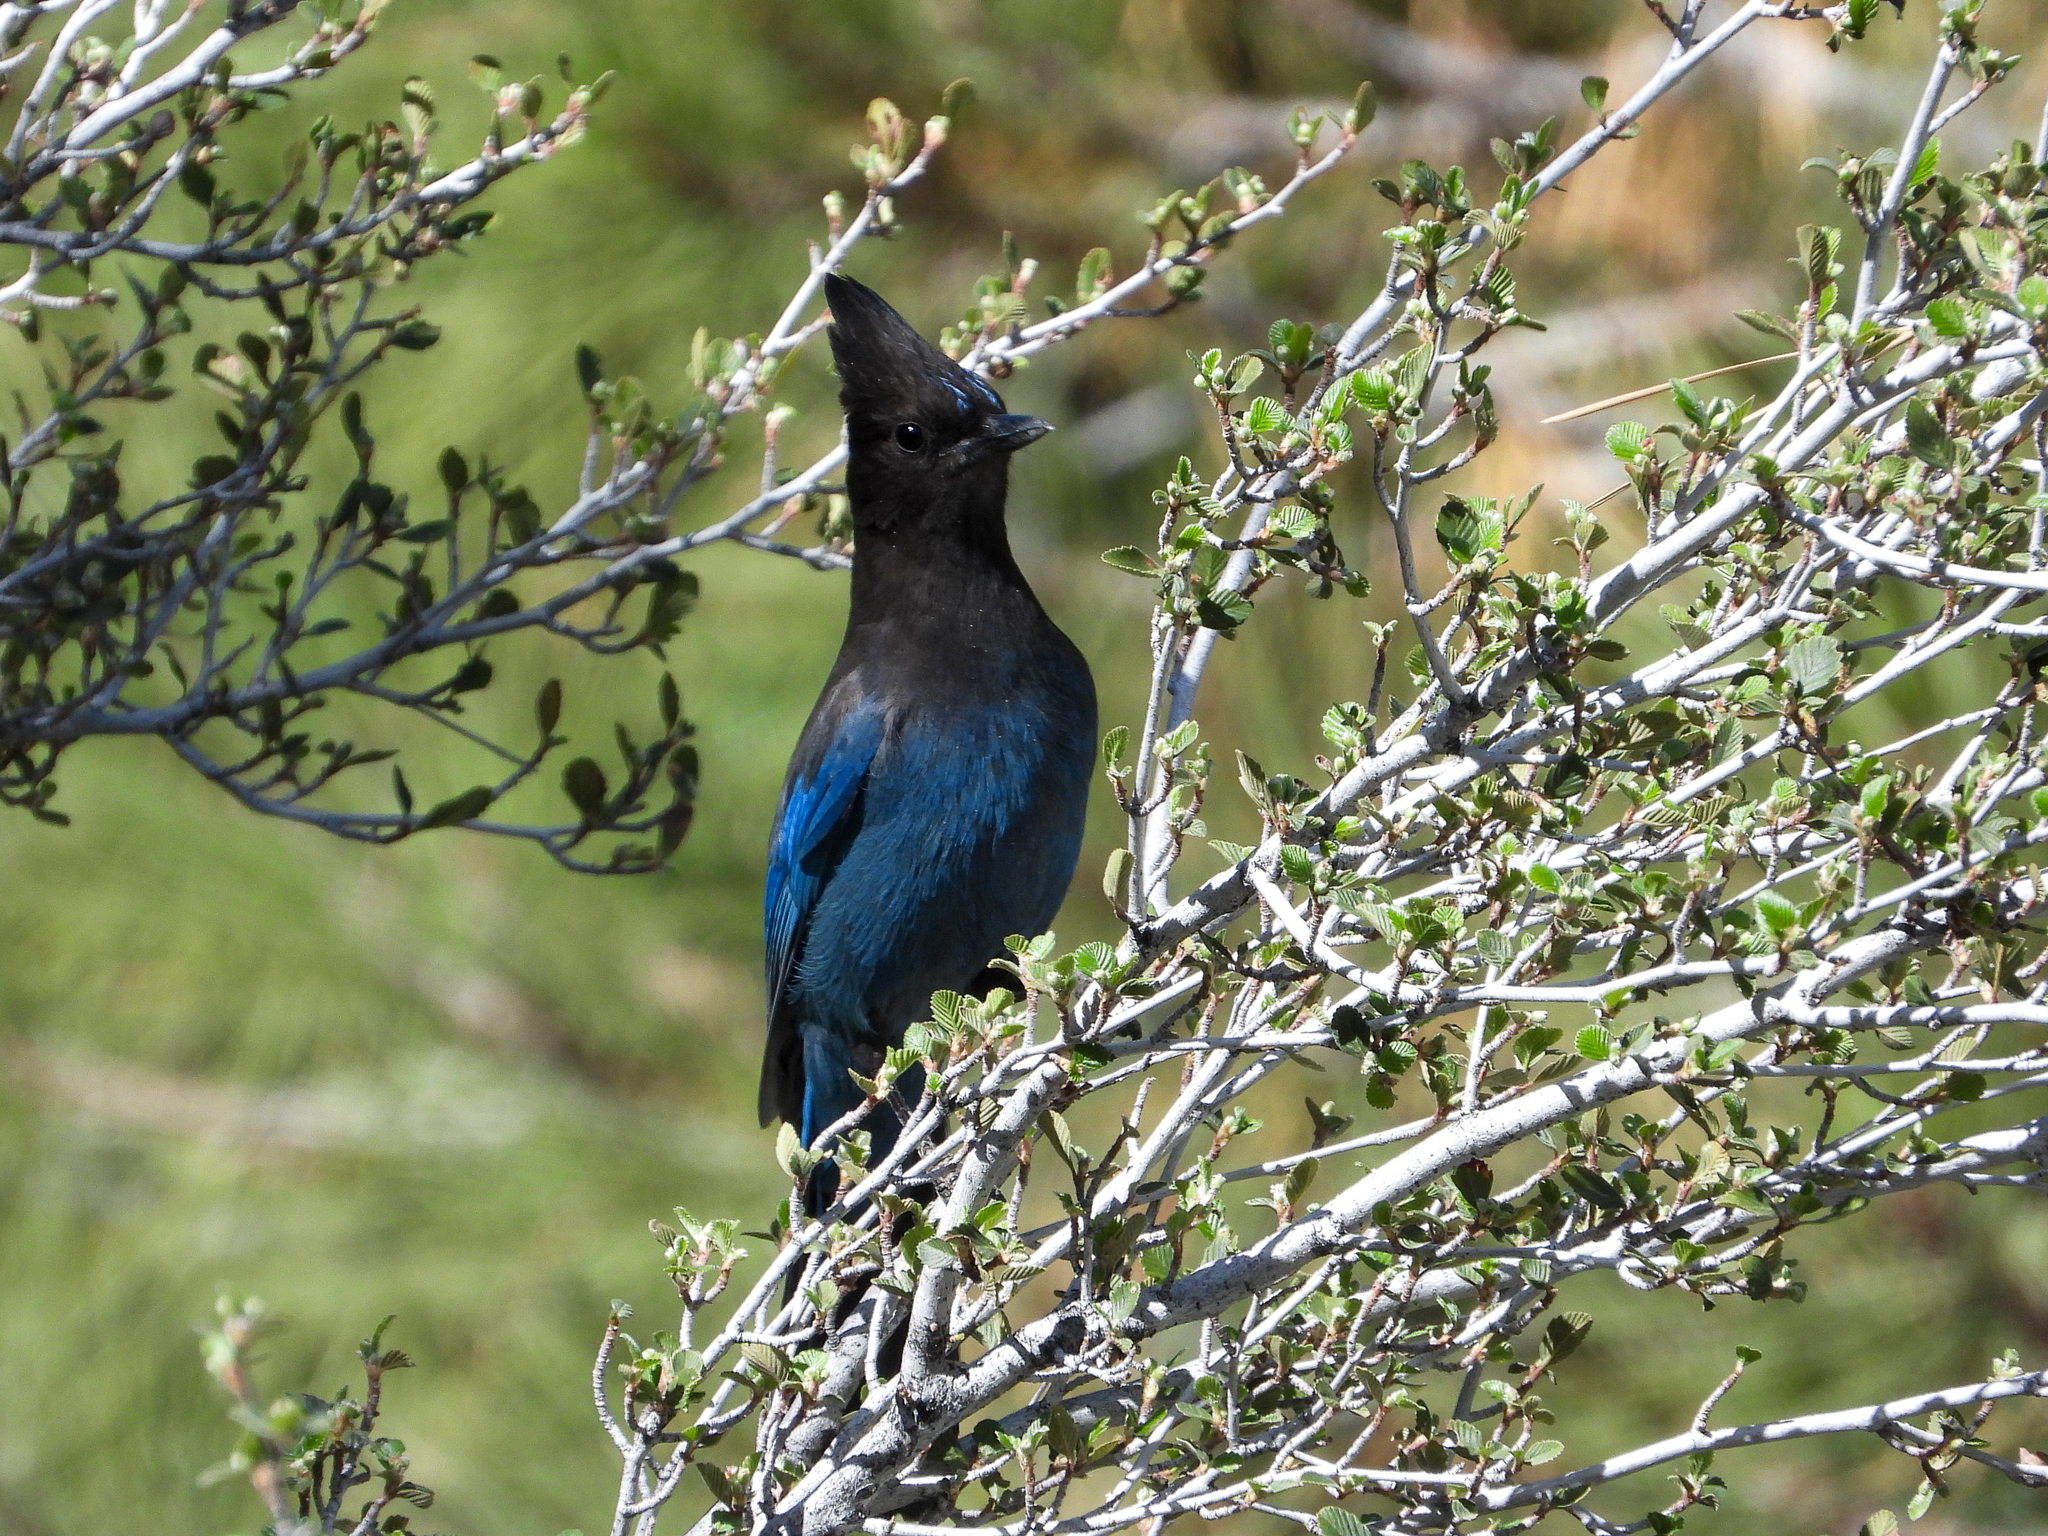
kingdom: Animalia
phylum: Chordata
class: Aves
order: Passeriformes
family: Corvidae
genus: Cyanocitta
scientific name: Cyanocitta stelleri
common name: Steller's jay
